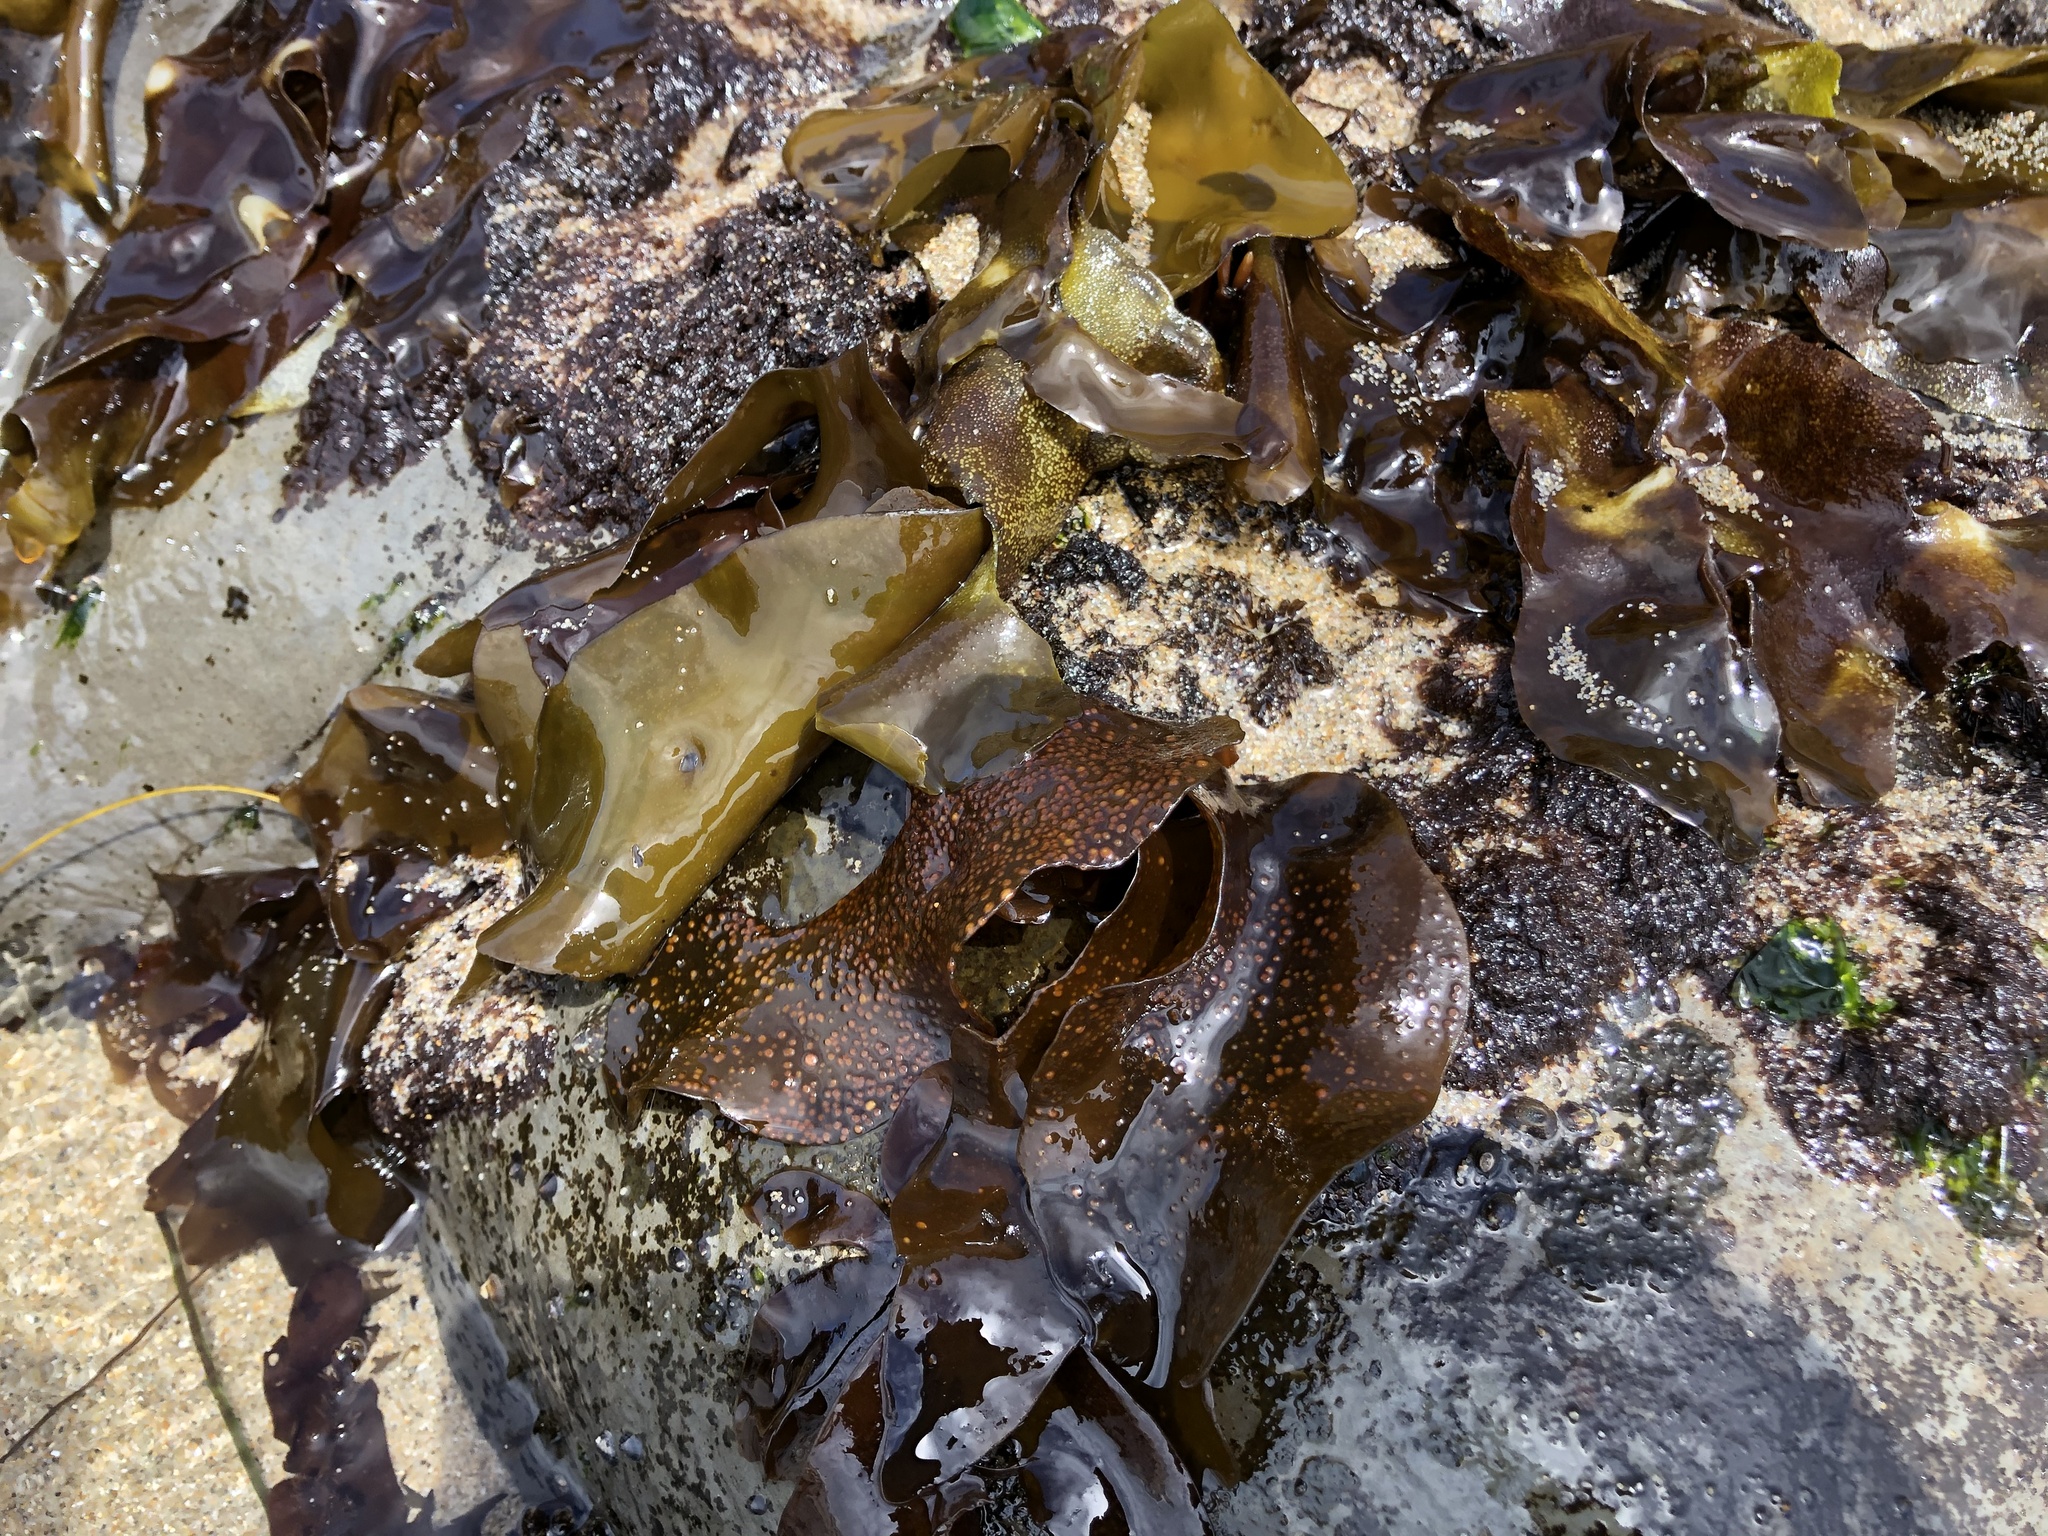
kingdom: Plantae
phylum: Rhodophyta
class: Florideophyceae
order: Gigartinales
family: Gigartinaceae
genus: Mazzaella
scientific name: Mazzaella oregona
